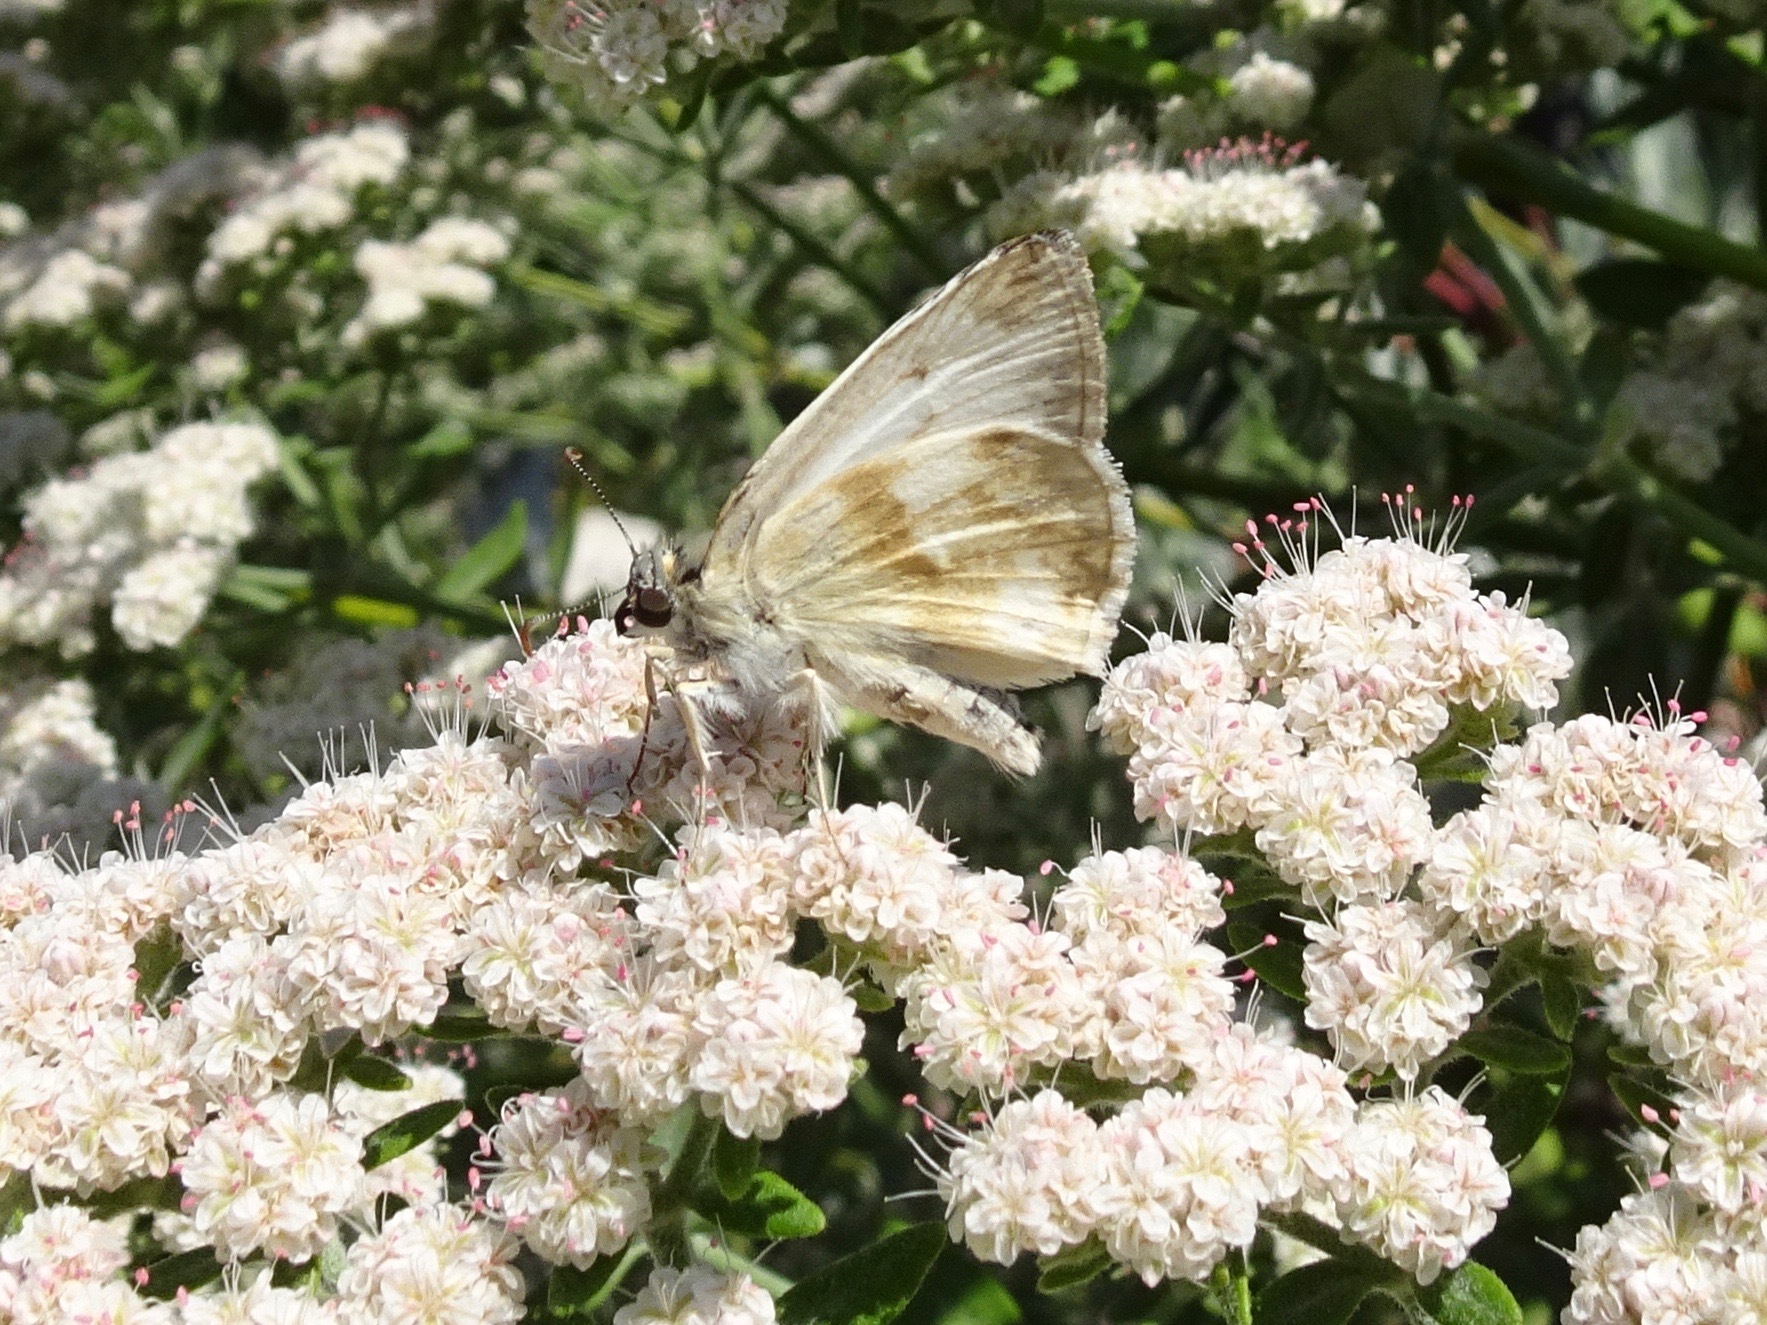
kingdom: Animalia
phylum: Arthropoda
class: Insecta
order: Lepidoptera
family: Hesperiidae
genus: Heliopetes
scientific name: Heliopetes ericetorum
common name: Northern white-skipper
